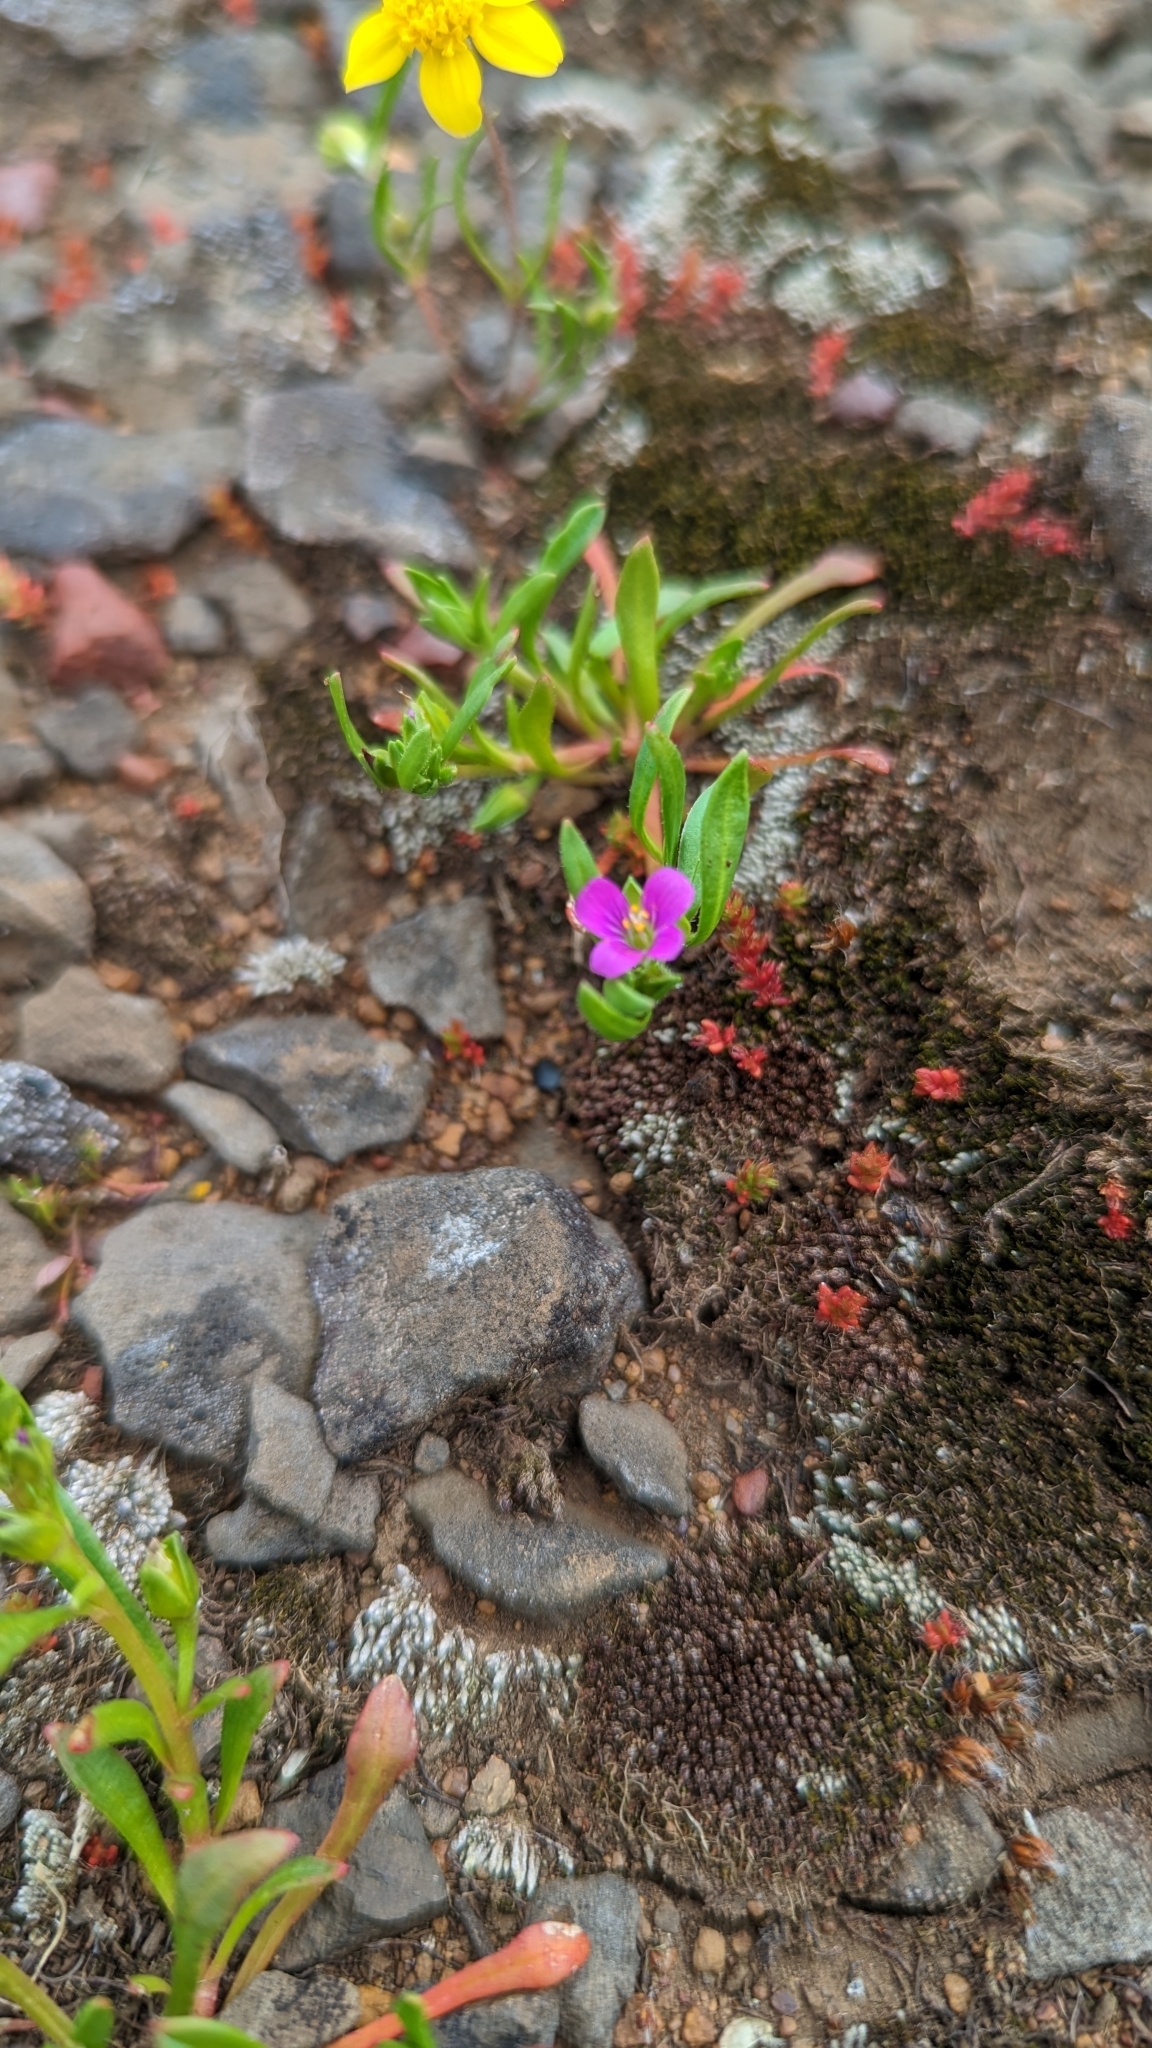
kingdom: Plantae
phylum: Tracheophyta
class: Magnoliopsida
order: Caryophyllales
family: Montiaceae
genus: Calandrinia
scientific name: Calandrinia menziesii
